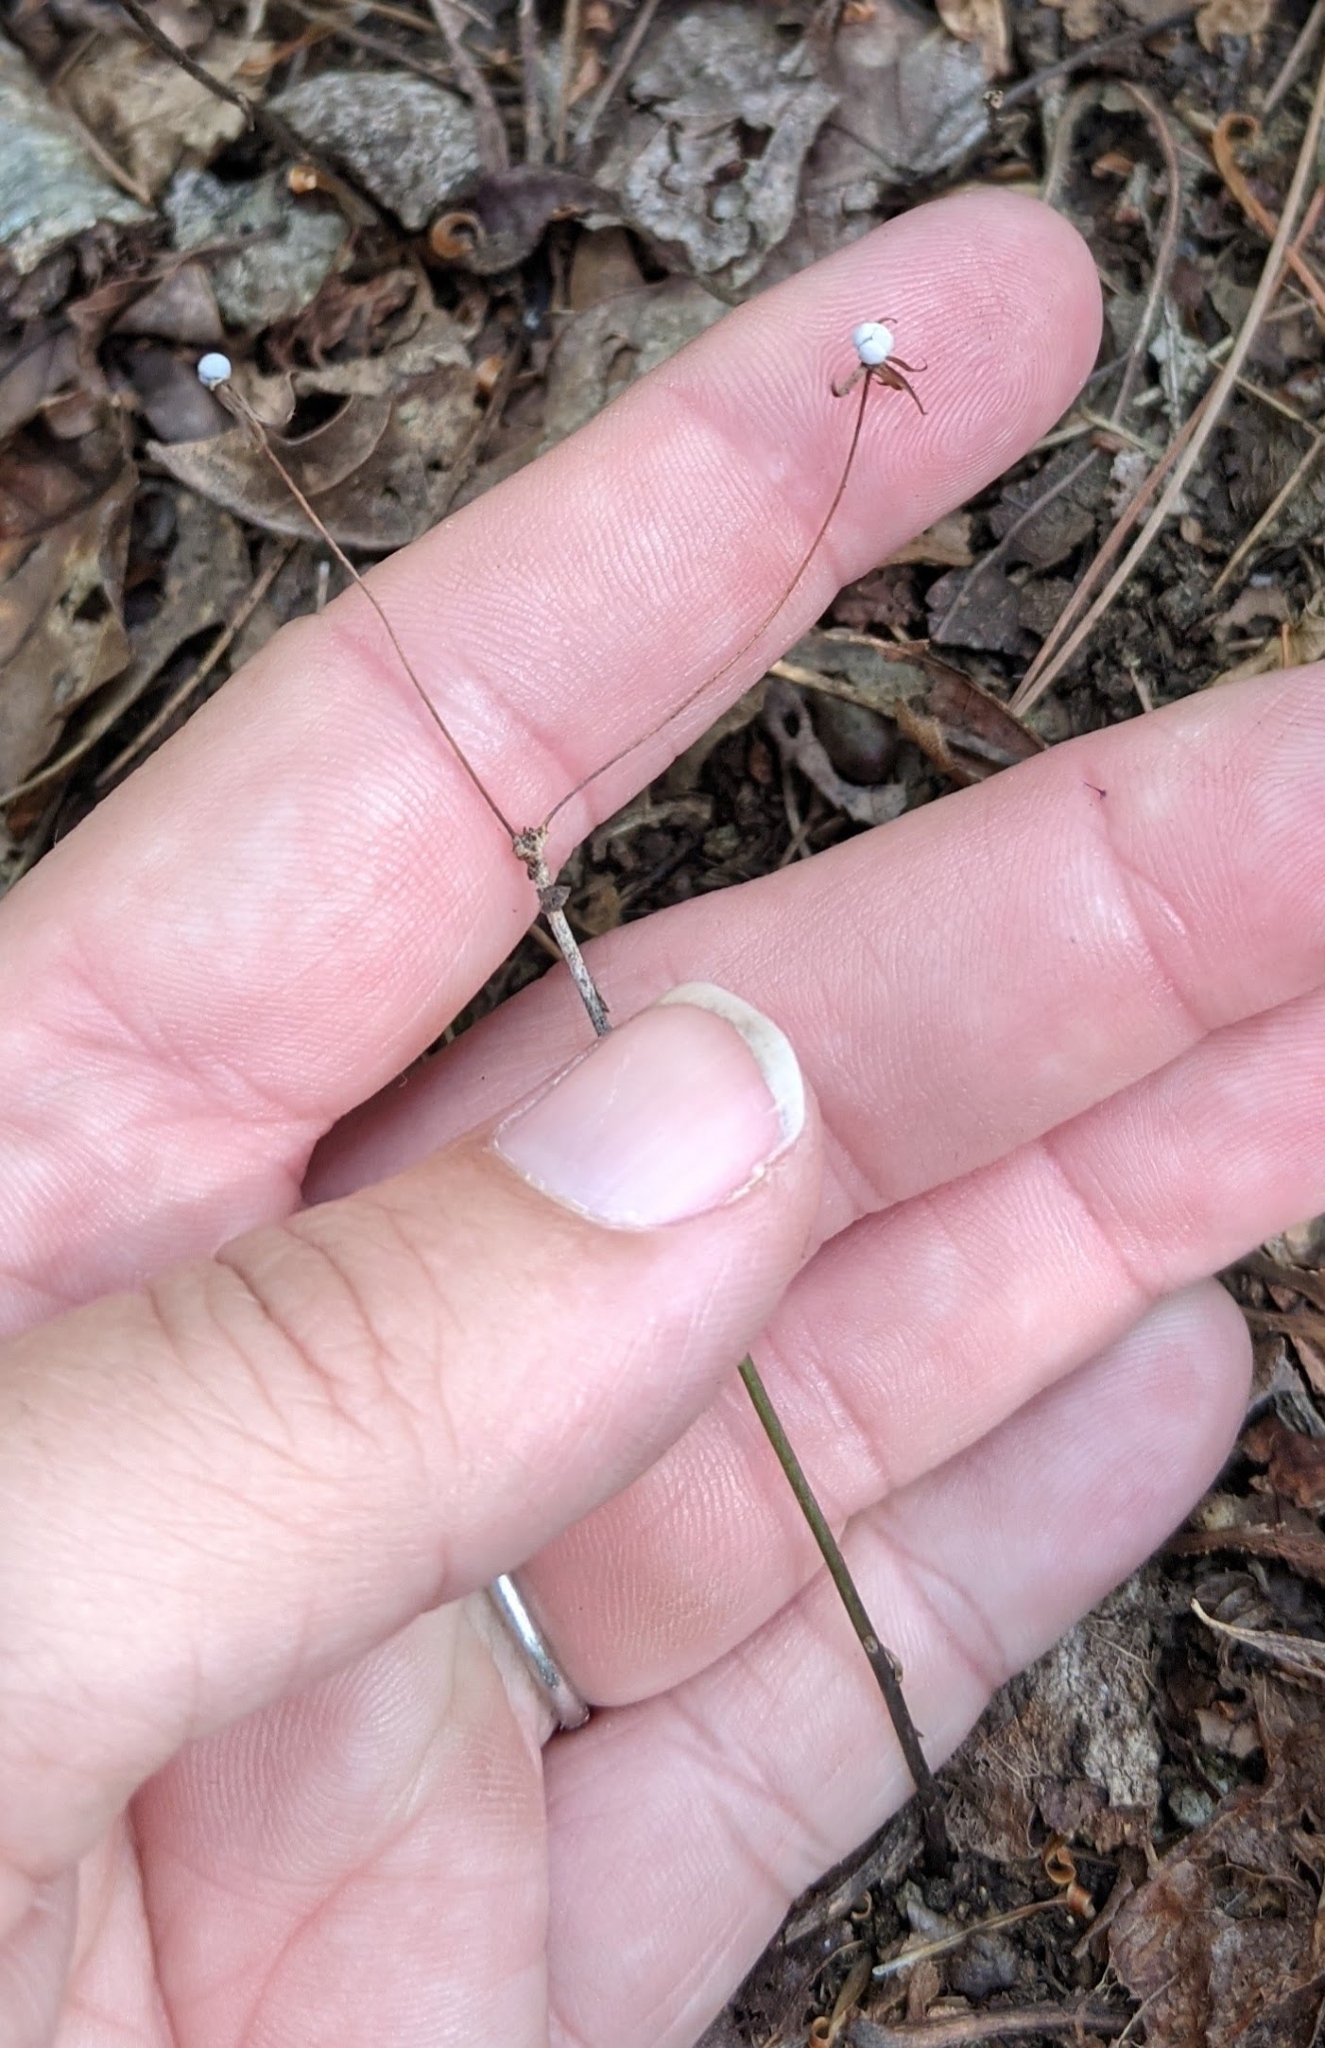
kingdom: Plantae
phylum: Tracheophyta
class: Magnoliopsida
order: Ericales
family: Primulaceae
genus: Lysimachia
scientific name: Lysimachia borealis
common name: American starflower
